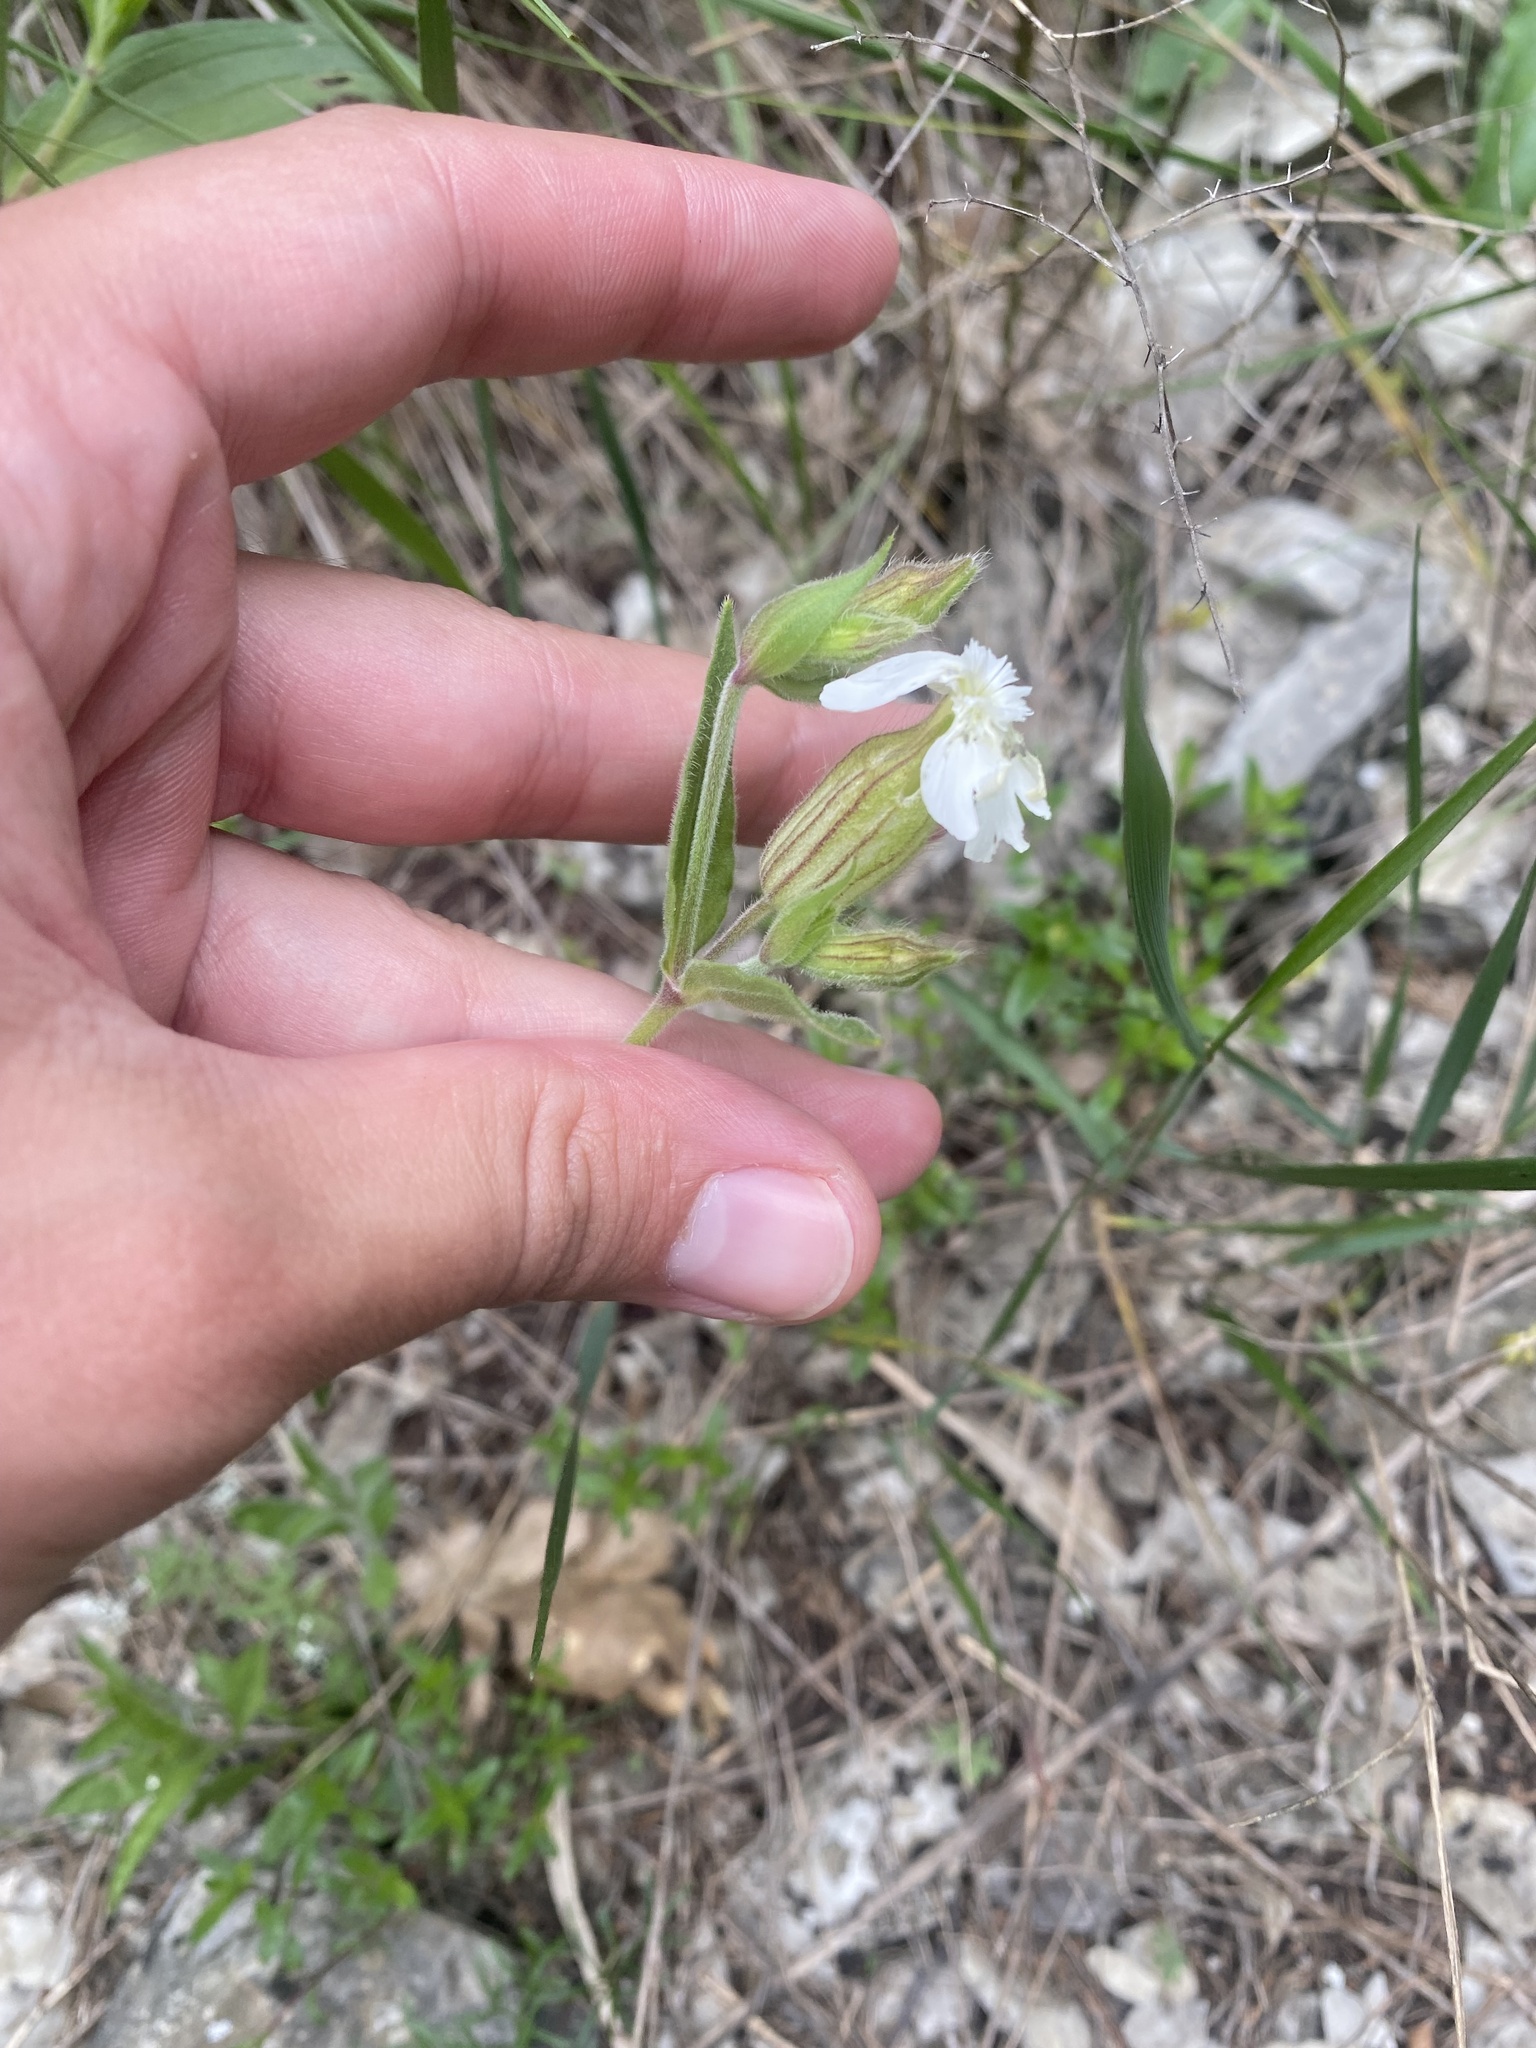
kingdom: Plantae
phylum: Tracheophyta
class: Magnoliopsida
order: Caryophyllales
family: Caryophyllaceae
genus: Silene
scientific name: Silene latifolia
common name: White campion
